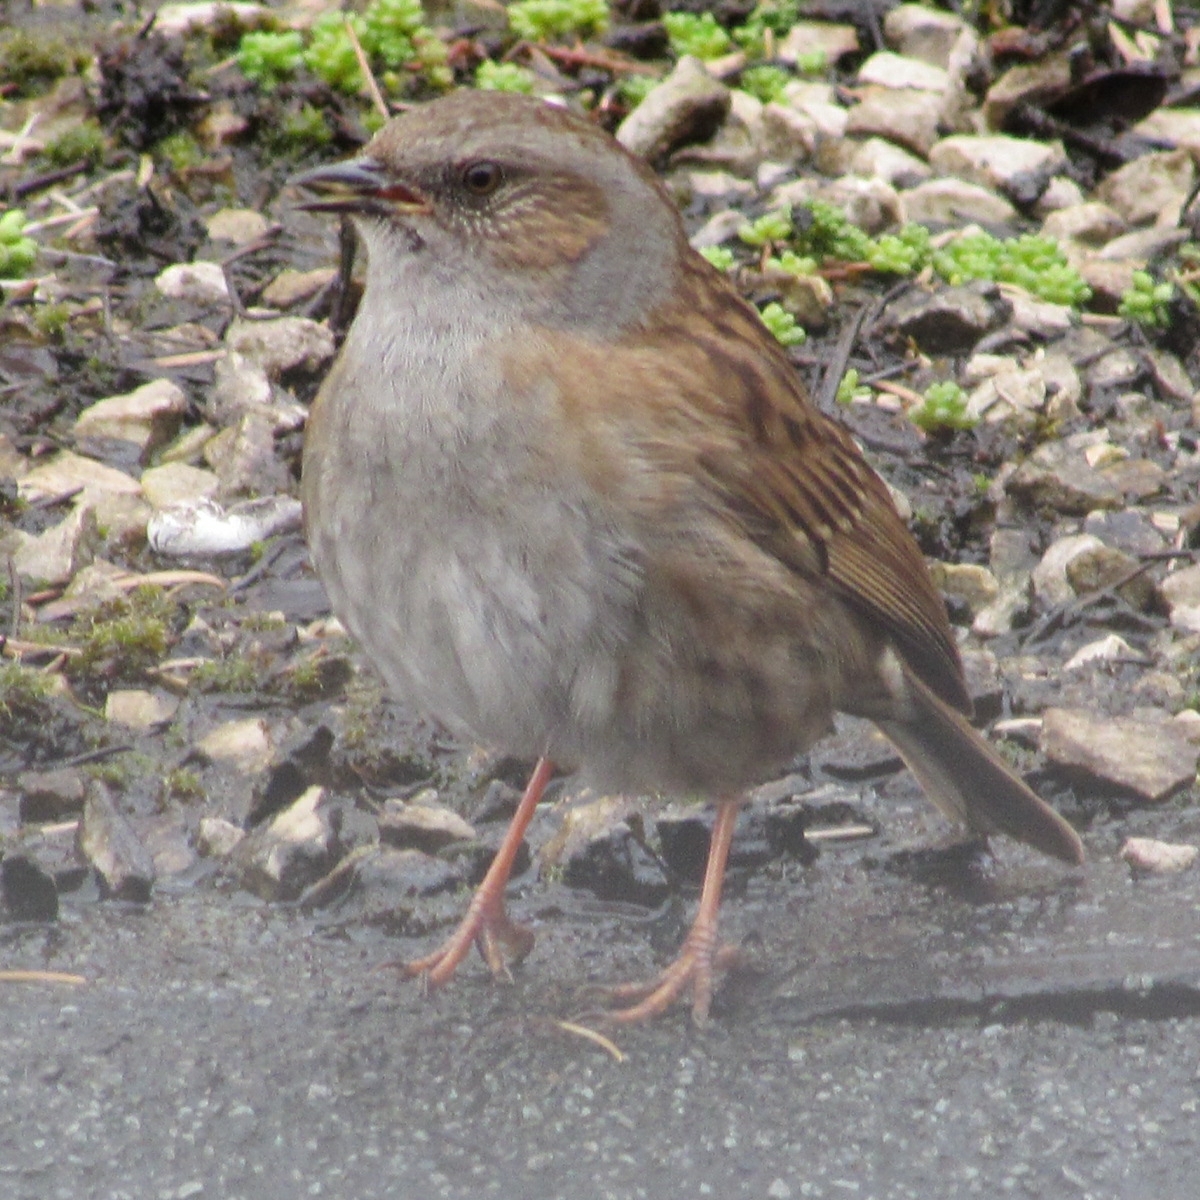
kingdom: Animalia
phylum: Chordata
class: Aves
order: Passeriformes
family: Prunellidae
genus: Prunella
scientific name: Prunella modularis
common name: Dunnock
